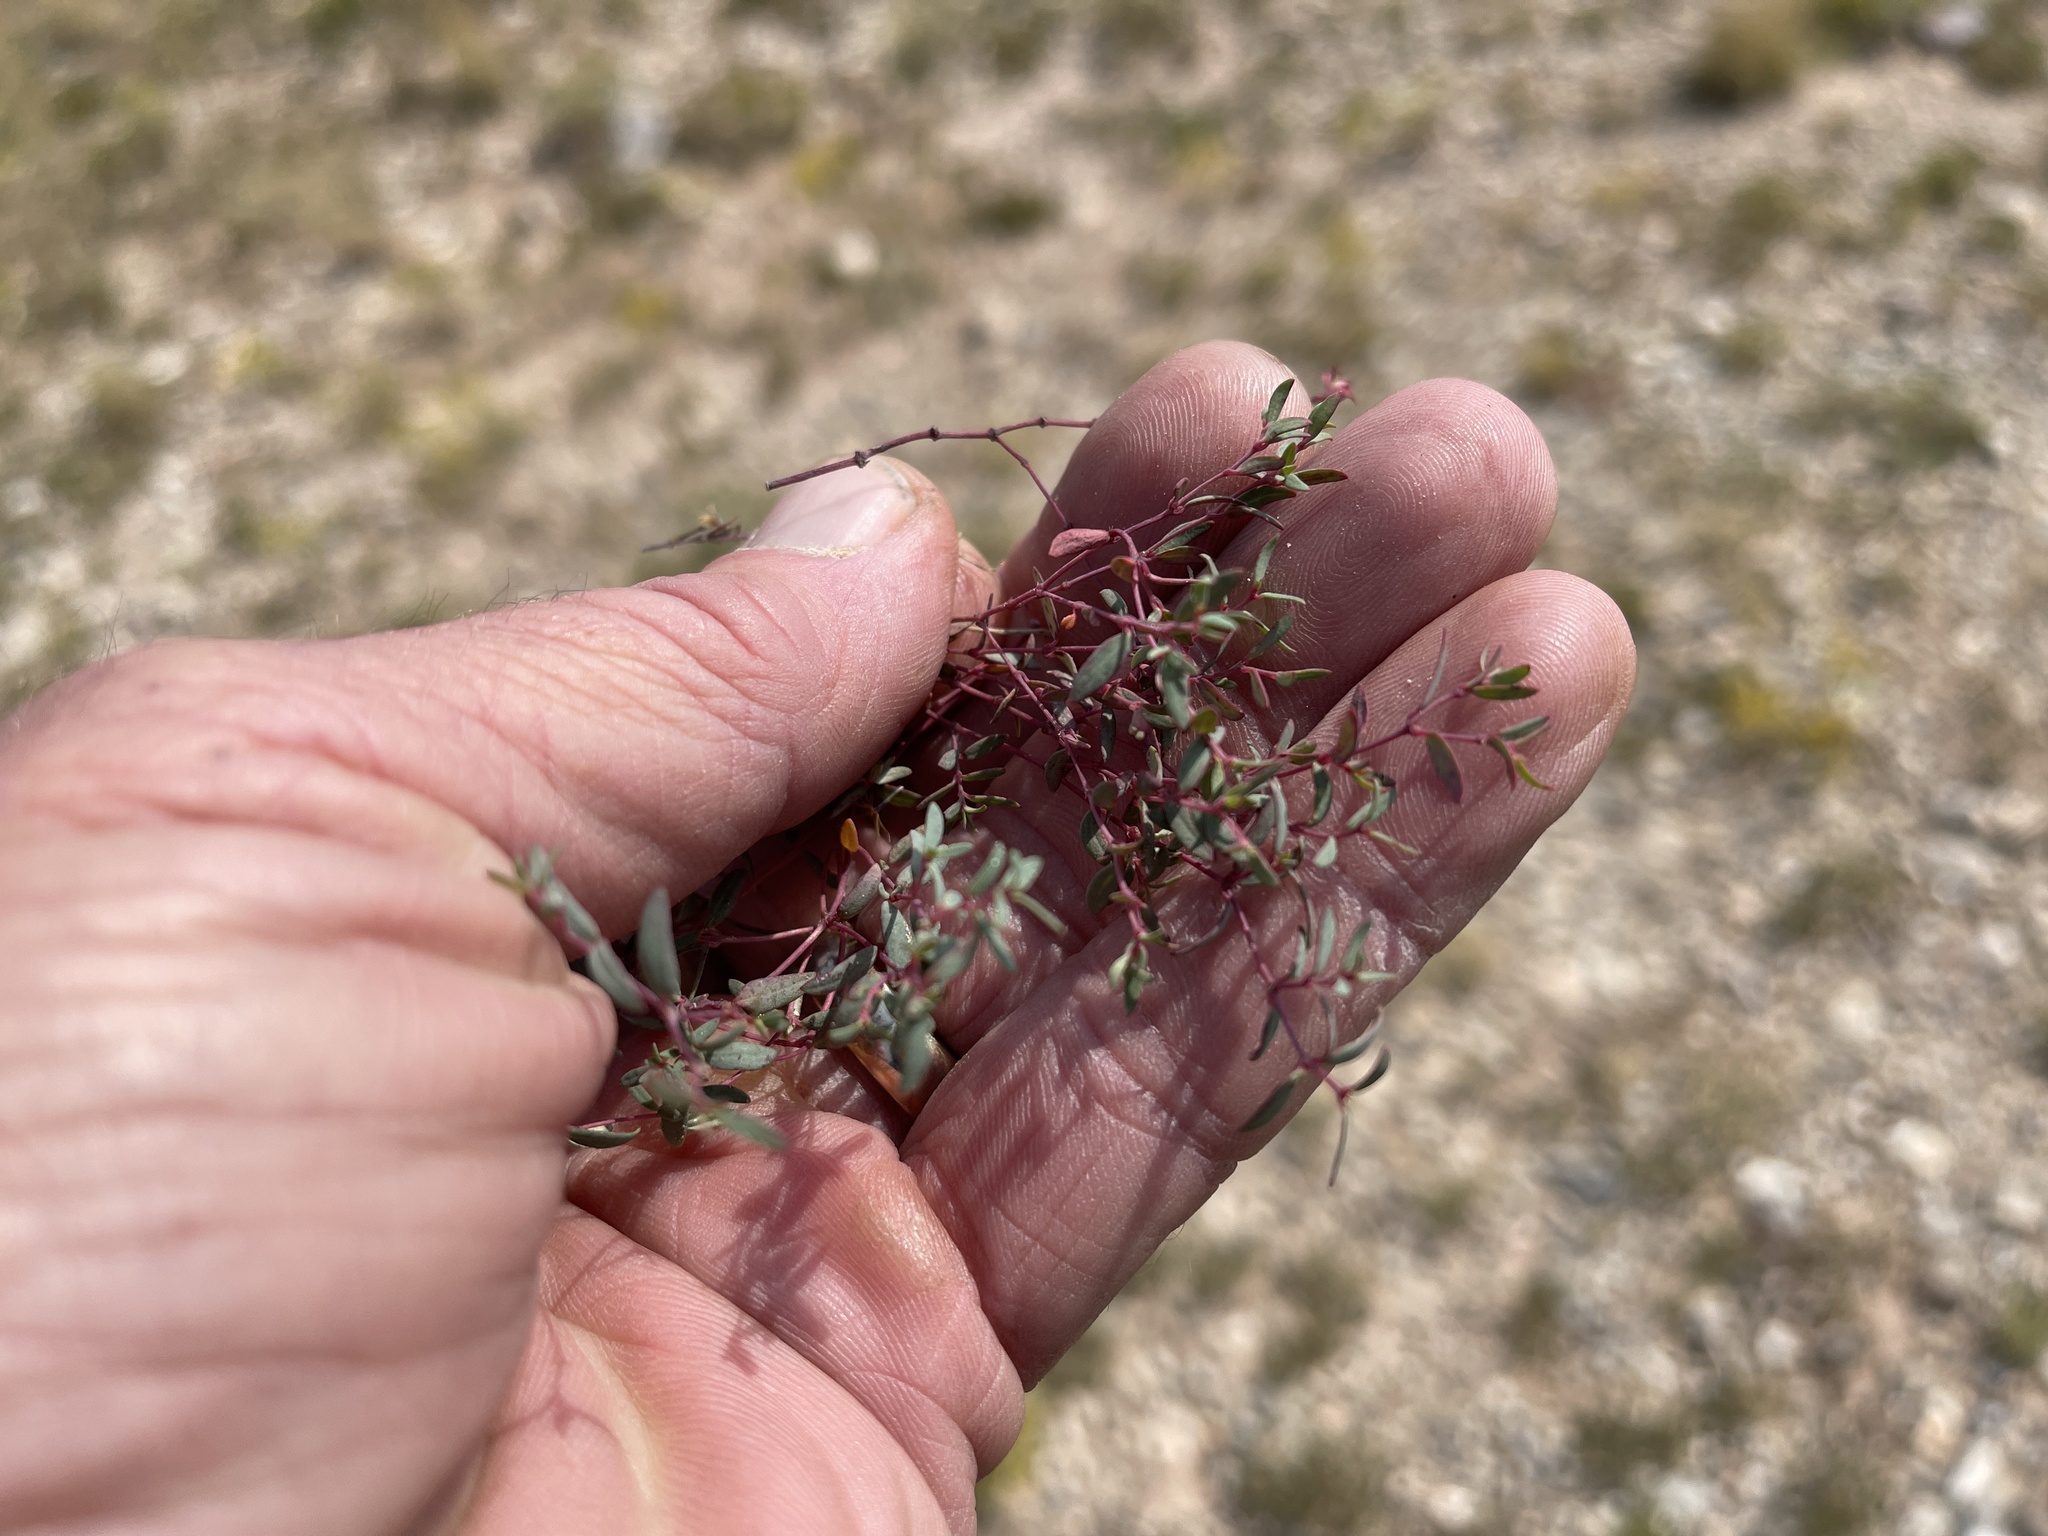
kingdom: Plantae
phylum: Tracheophyta
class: Magnoliopsida
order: Malpighiales
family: Euphorbiaceae
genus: Euphorbia
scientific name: Euphorbia chaetocalyx
